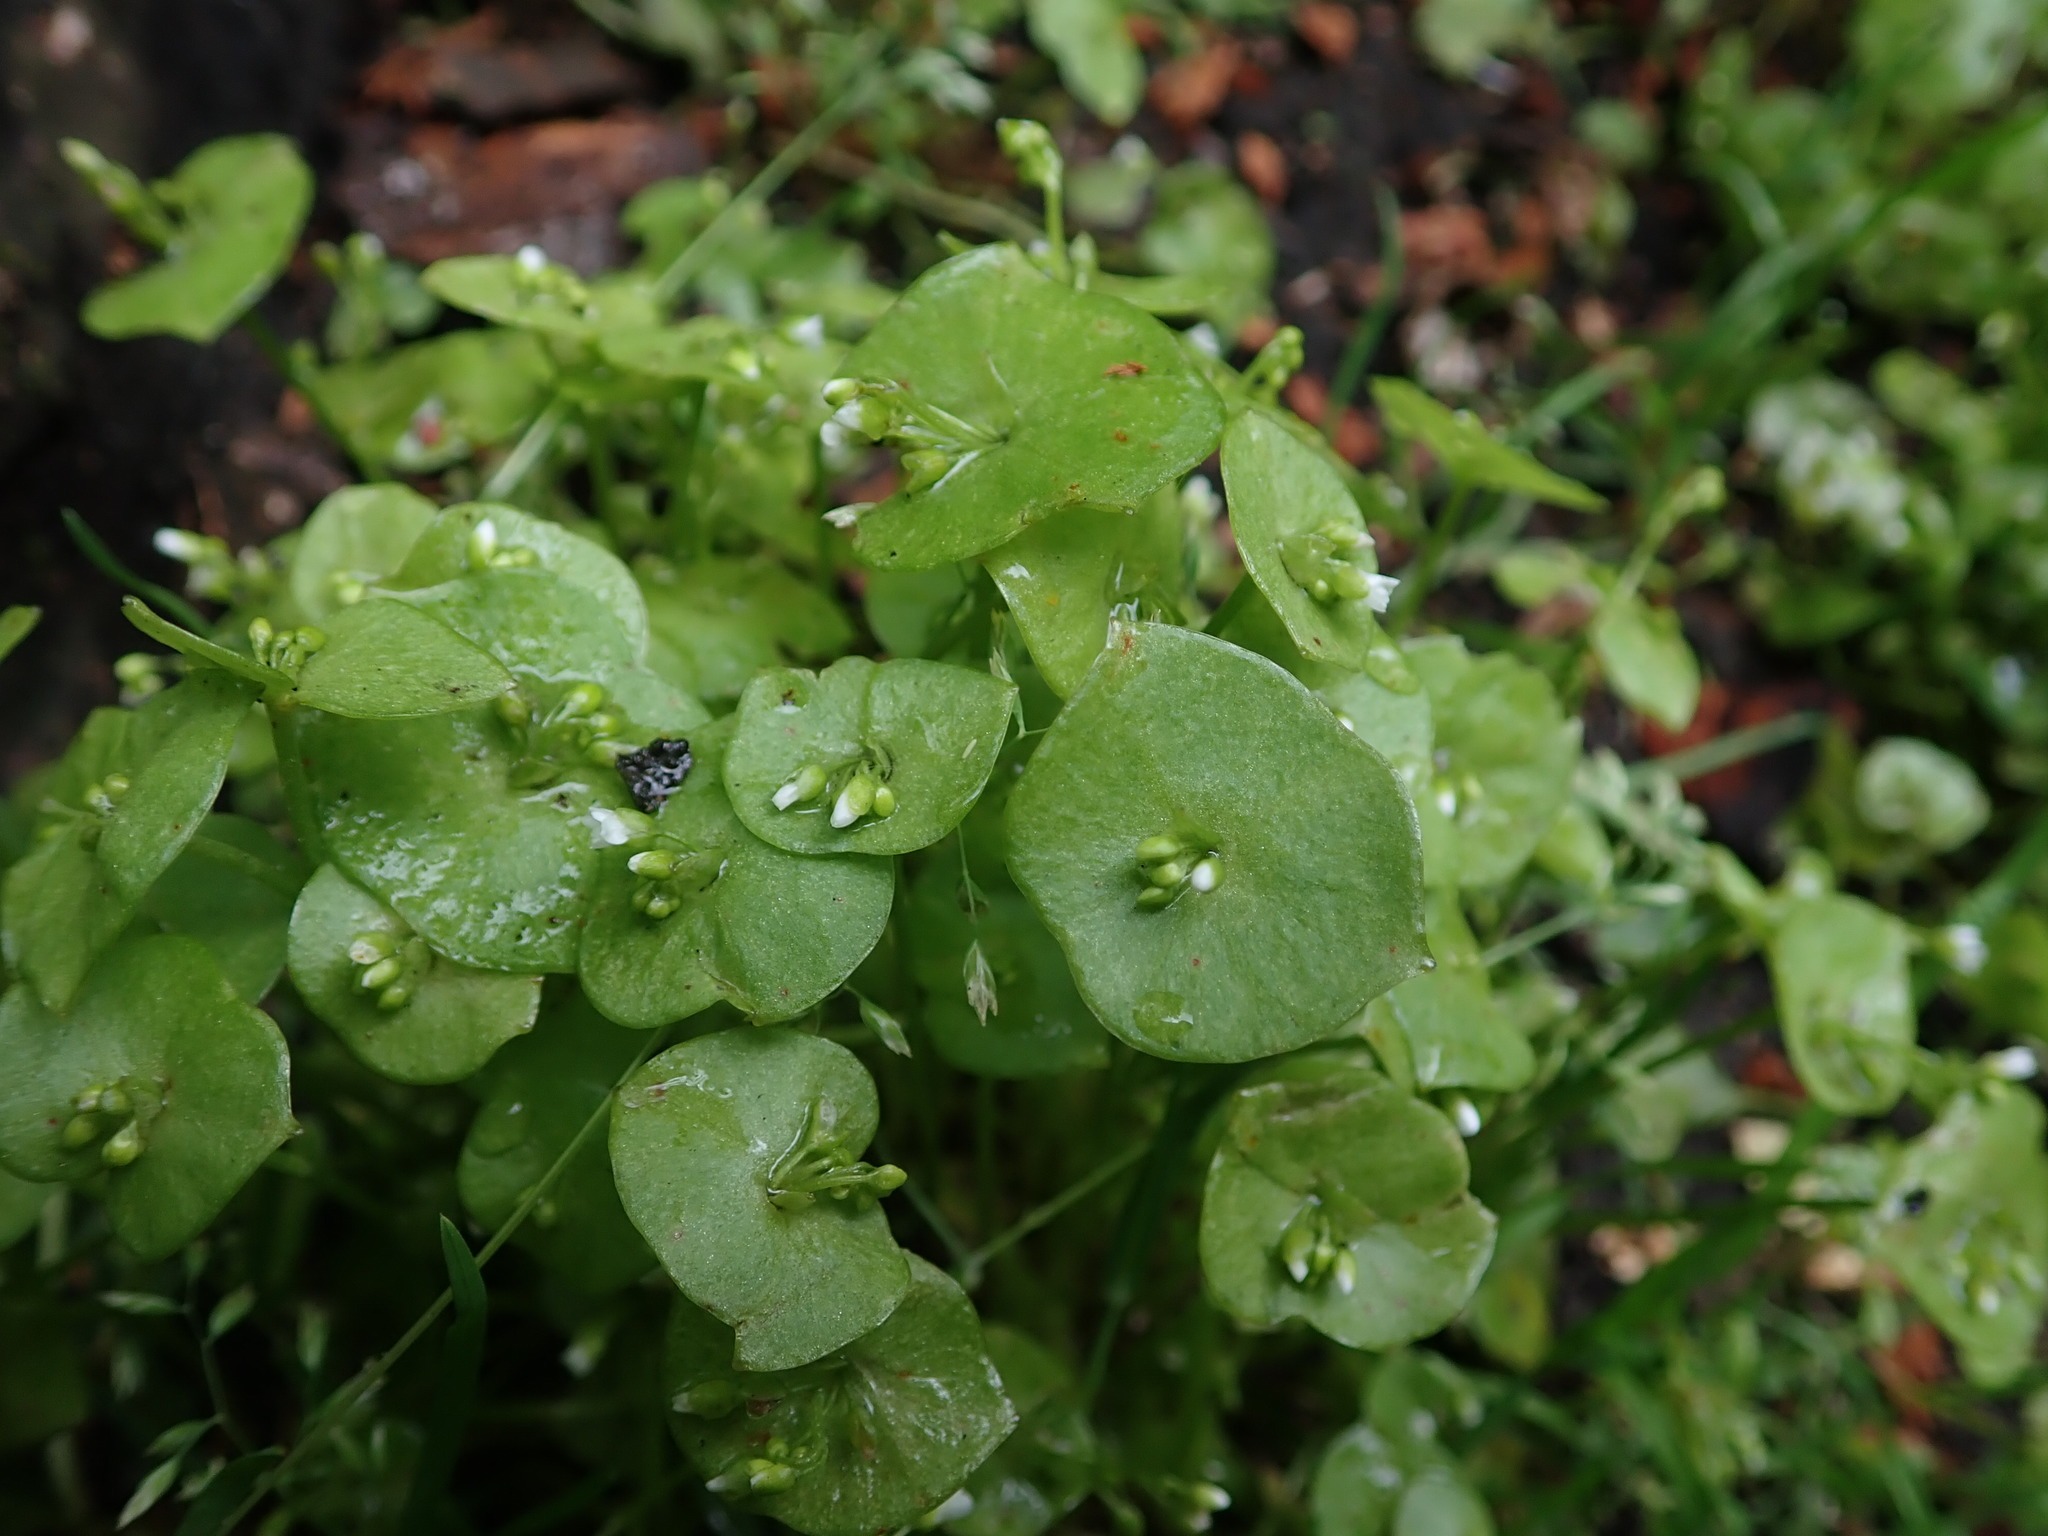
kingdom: Plantae
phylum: Tracheophyta
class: Magnoliopsida
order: Caryophyllales
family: Montiaceae
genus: Claytonia
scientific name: Claytonia perfoliata
